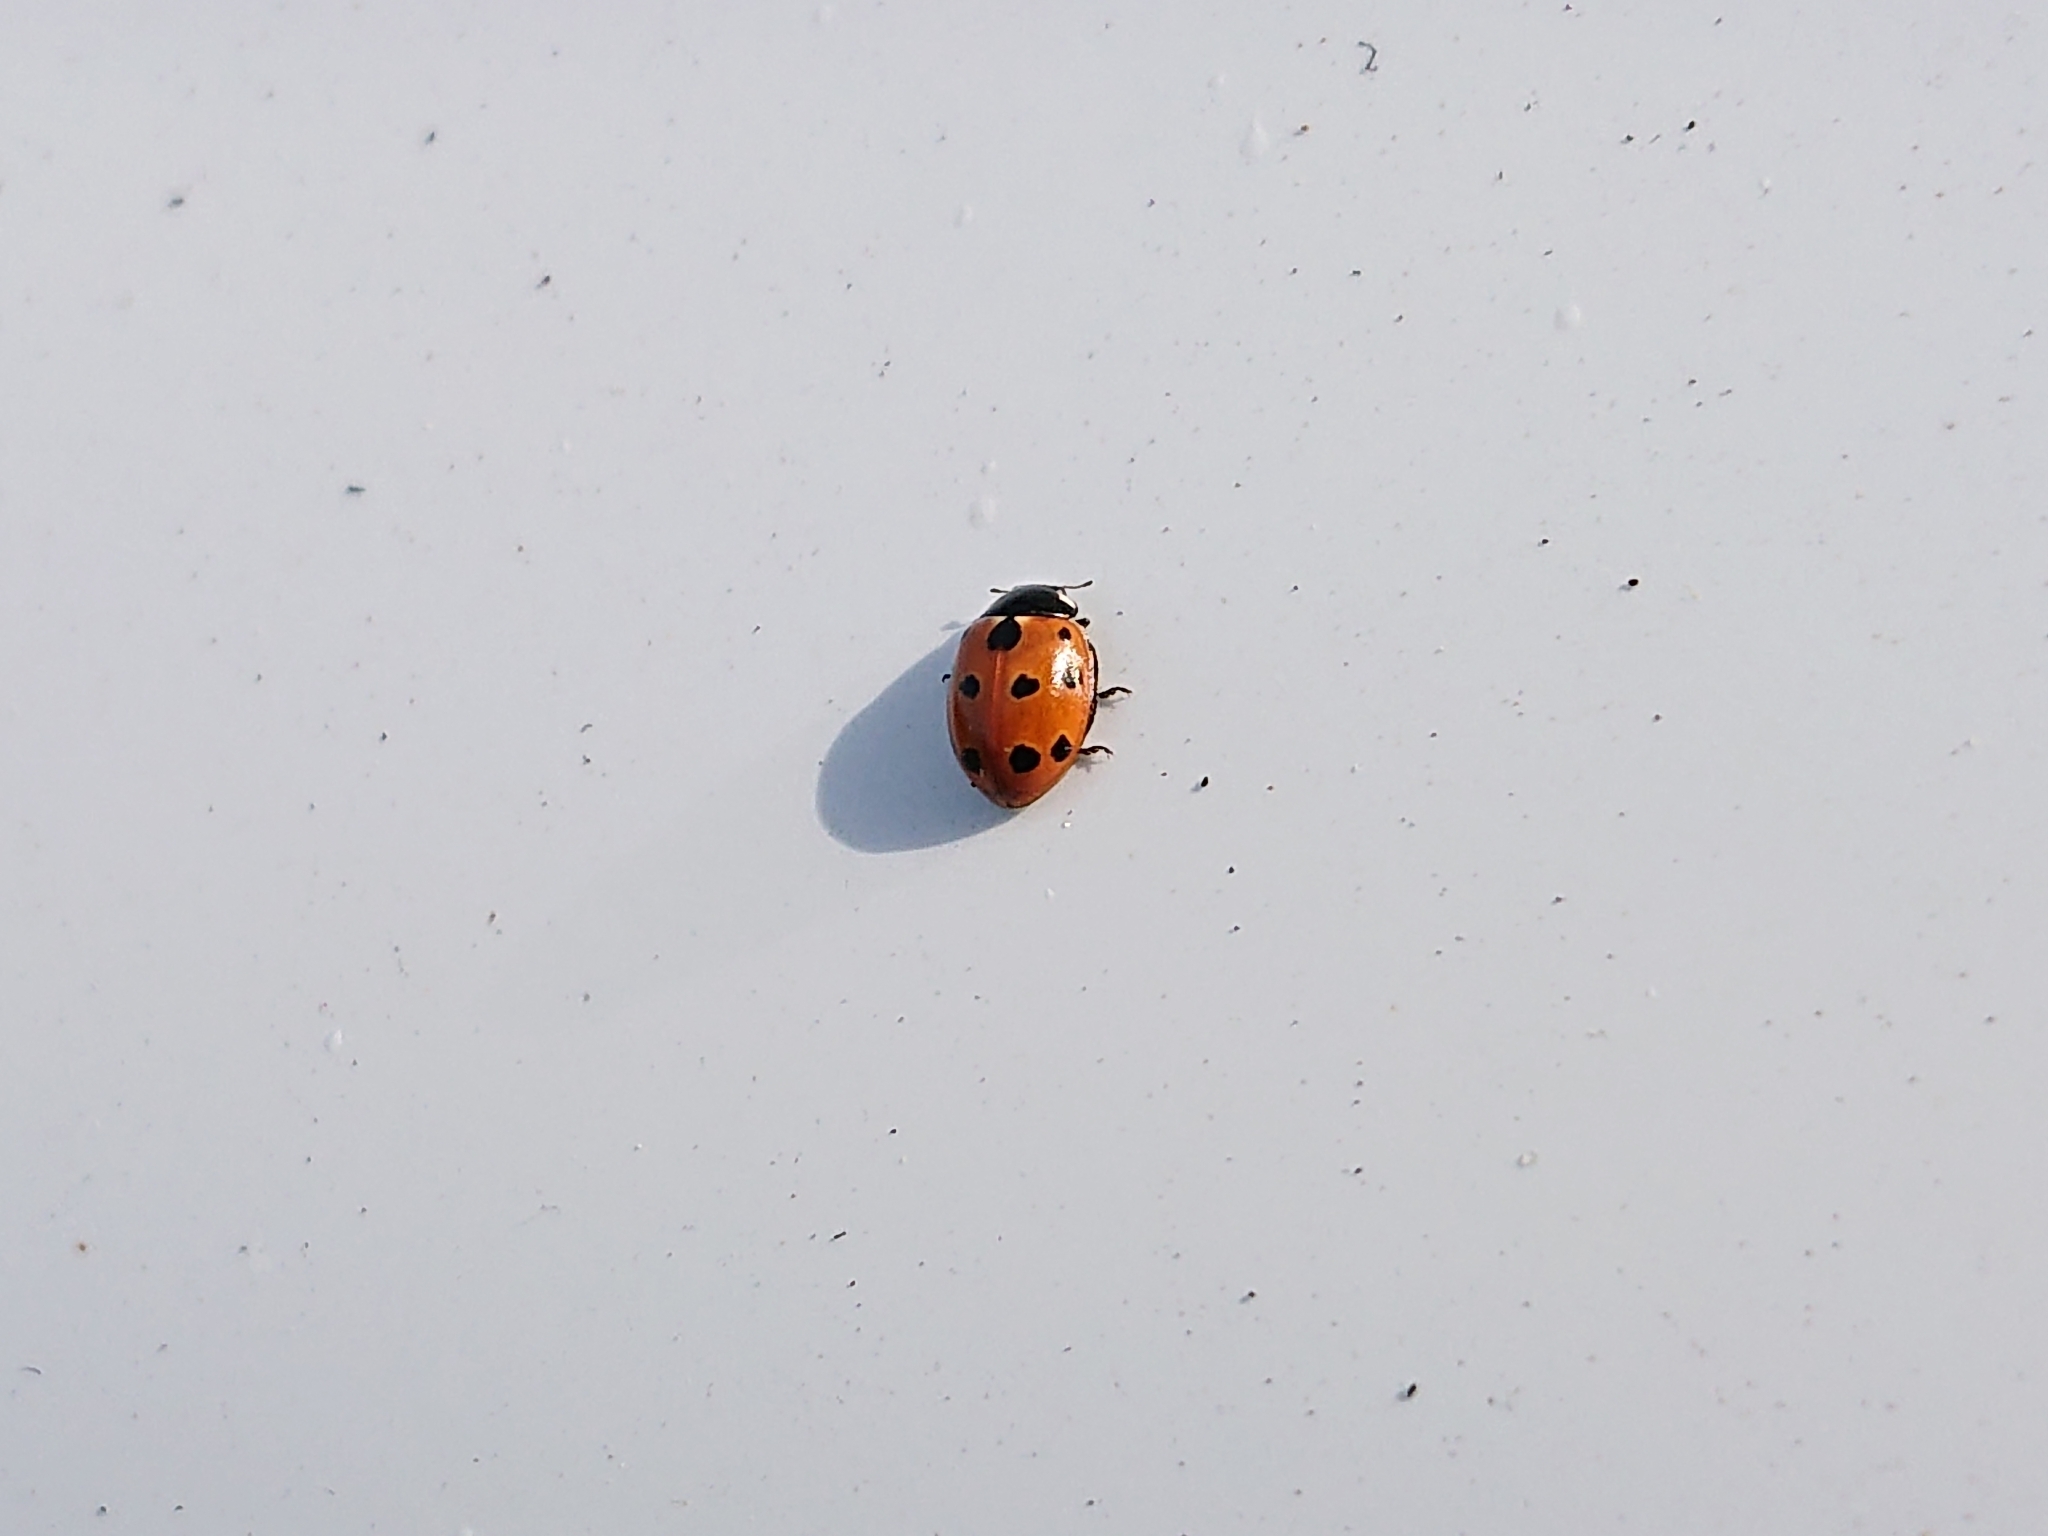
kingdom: Animalia
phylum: Arthropoda
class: Insecta
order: Coleoptera
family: Coccinellidae
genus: Coccinella
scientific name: Coccinella undecimpunctata
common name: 11-spot ladybird
